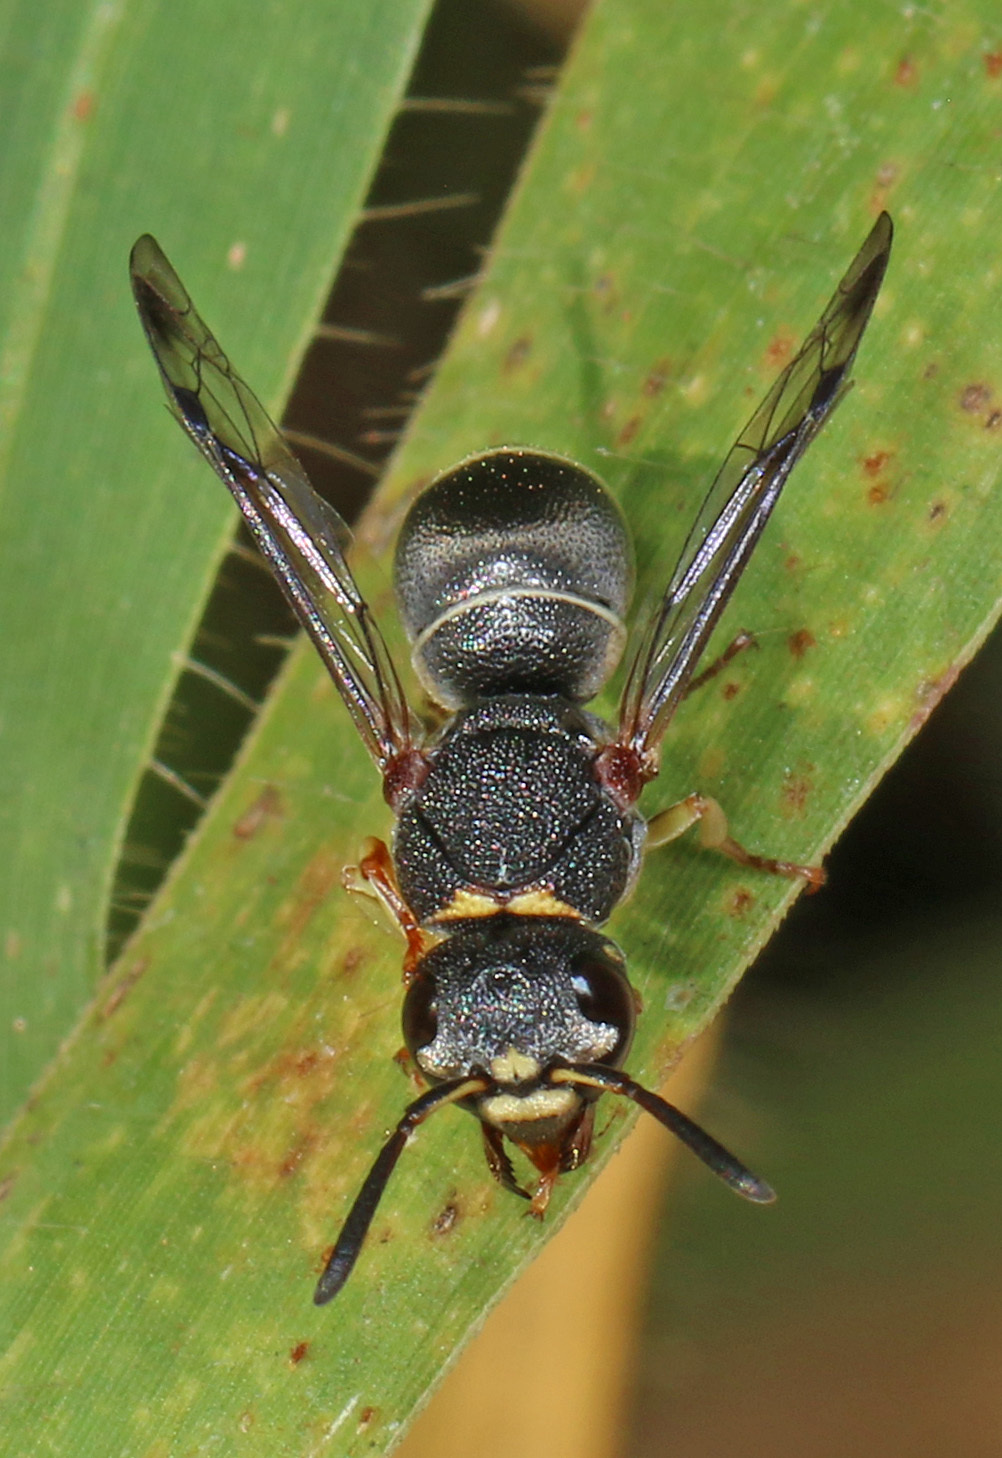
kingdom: Animalia
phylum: Arthropoda
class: Insecta
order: Hymenoptera
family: Eumenidae
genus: Antepipona
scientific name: Antepipona
